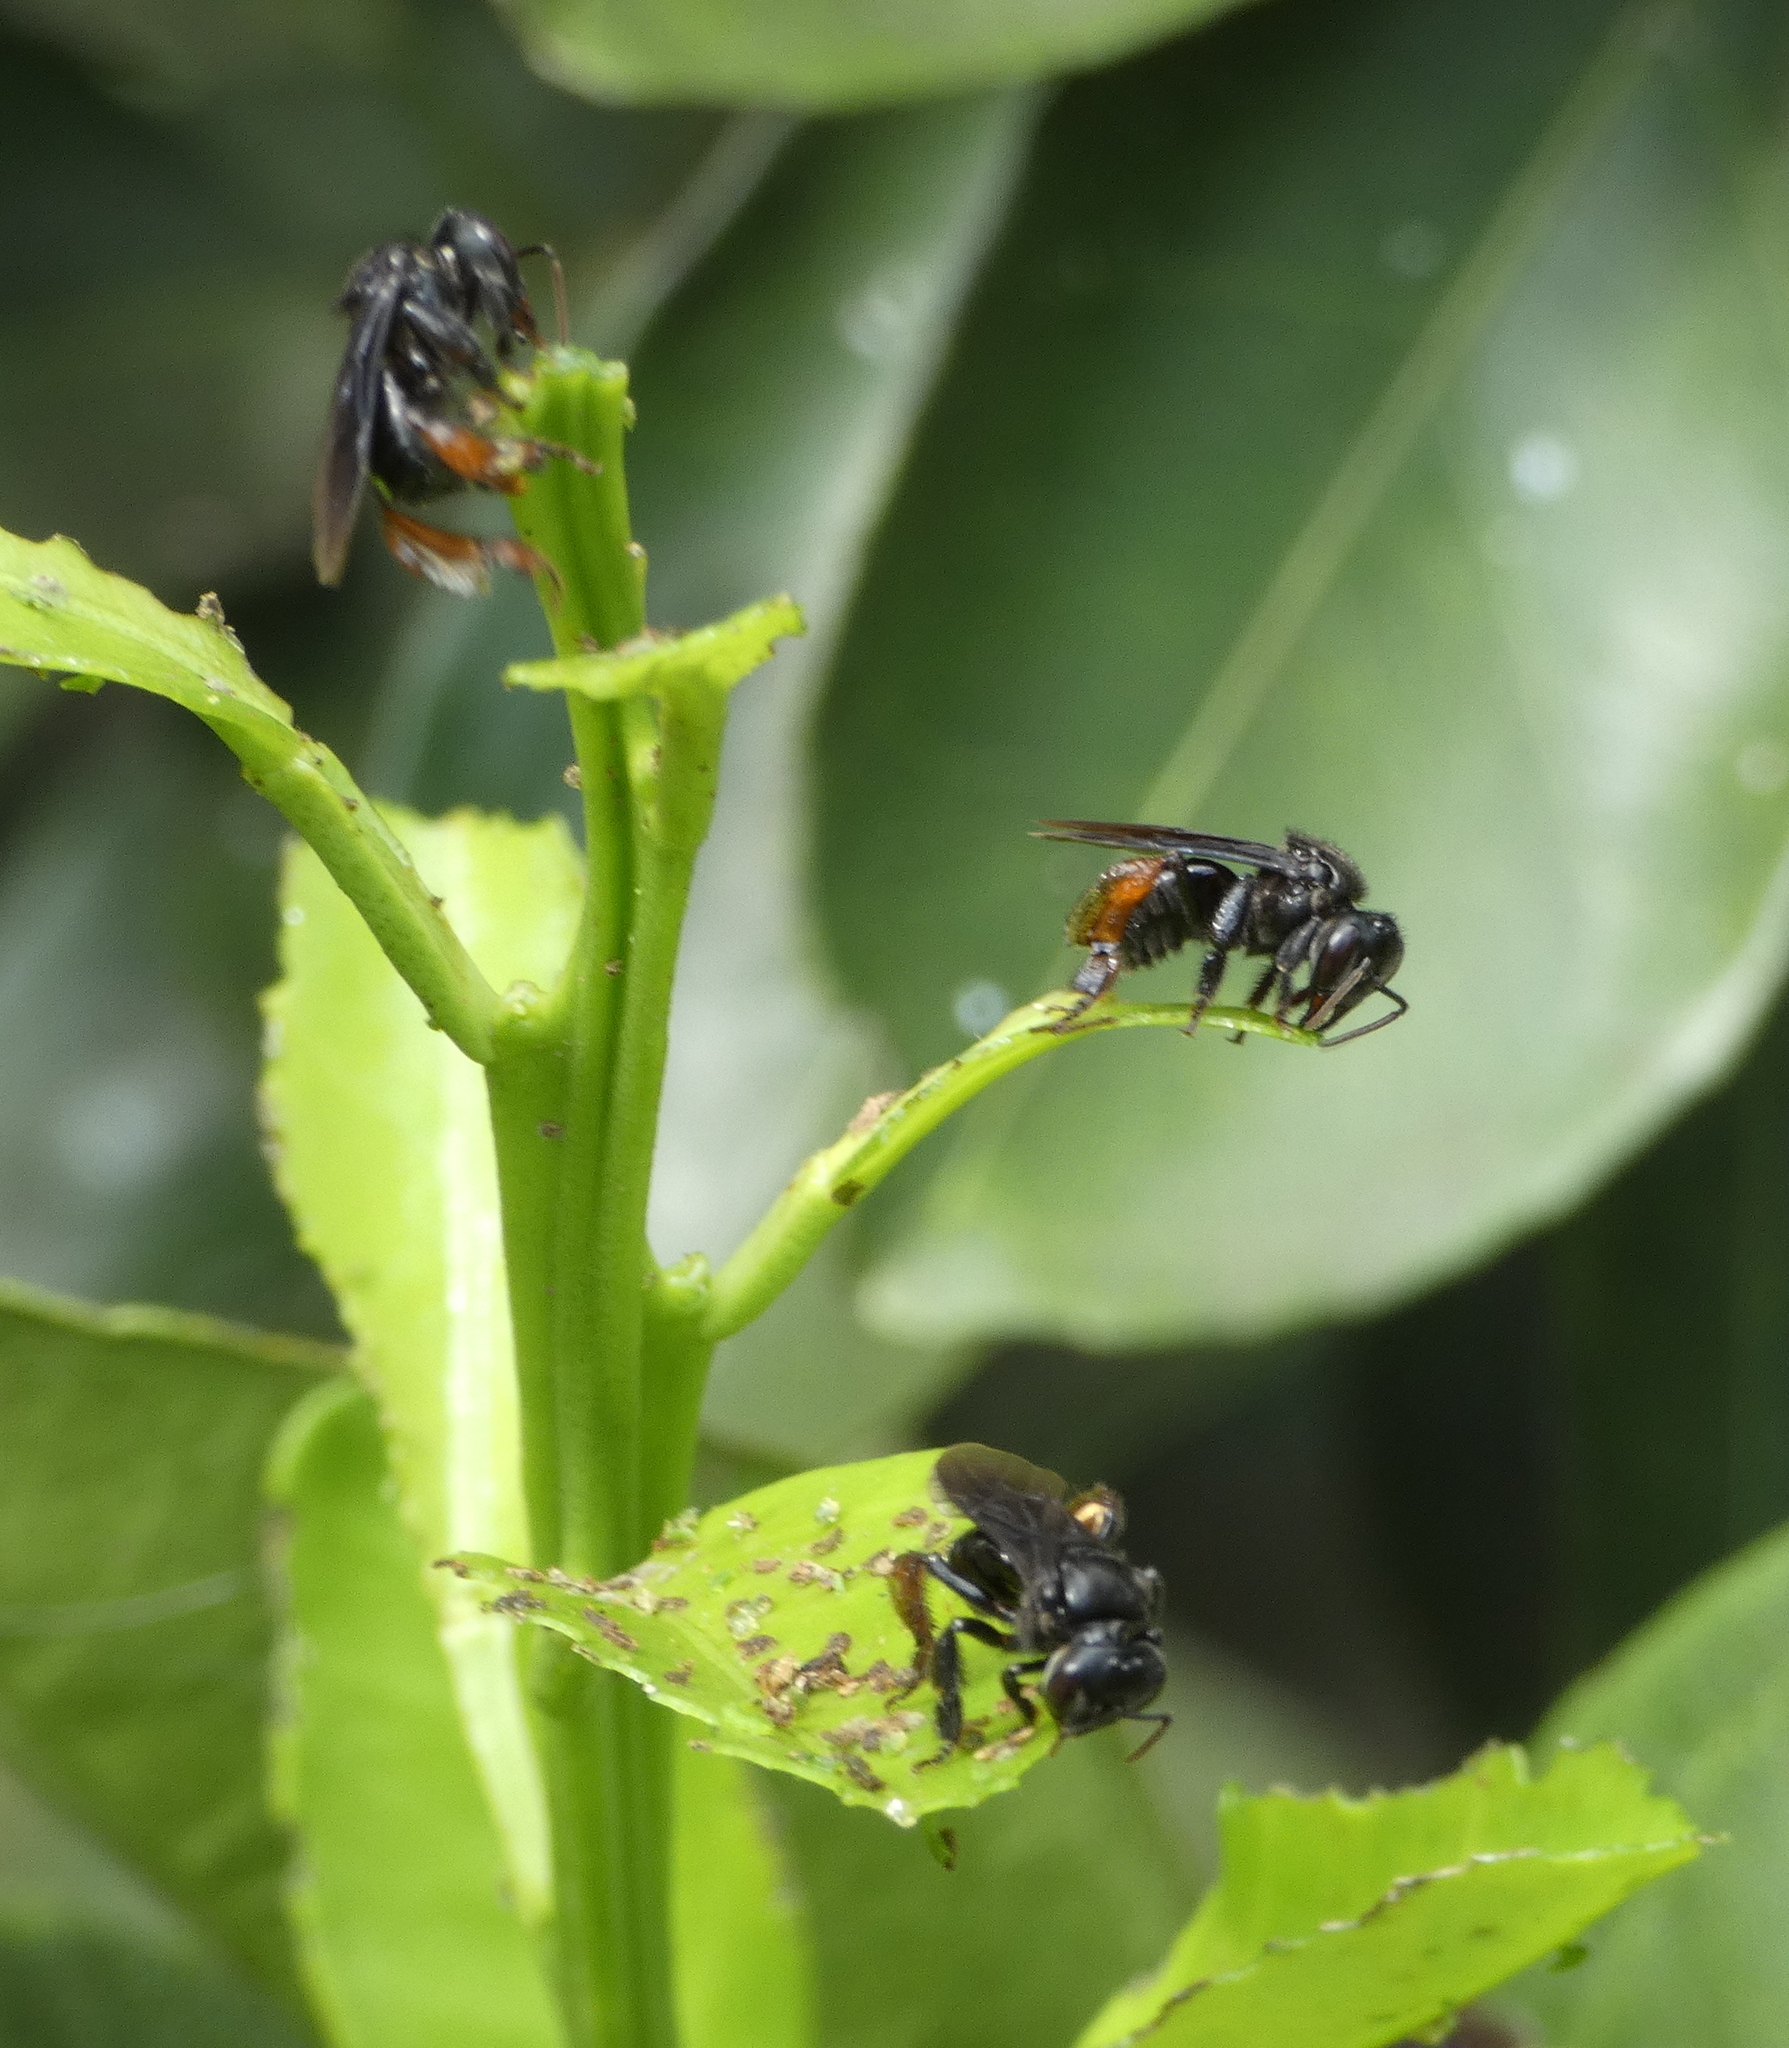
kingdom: Animalia
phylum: Arthropoda
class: Insecta
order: Hymenoptera
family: Apidae
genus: Trigona
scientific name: Trigona spinipes
